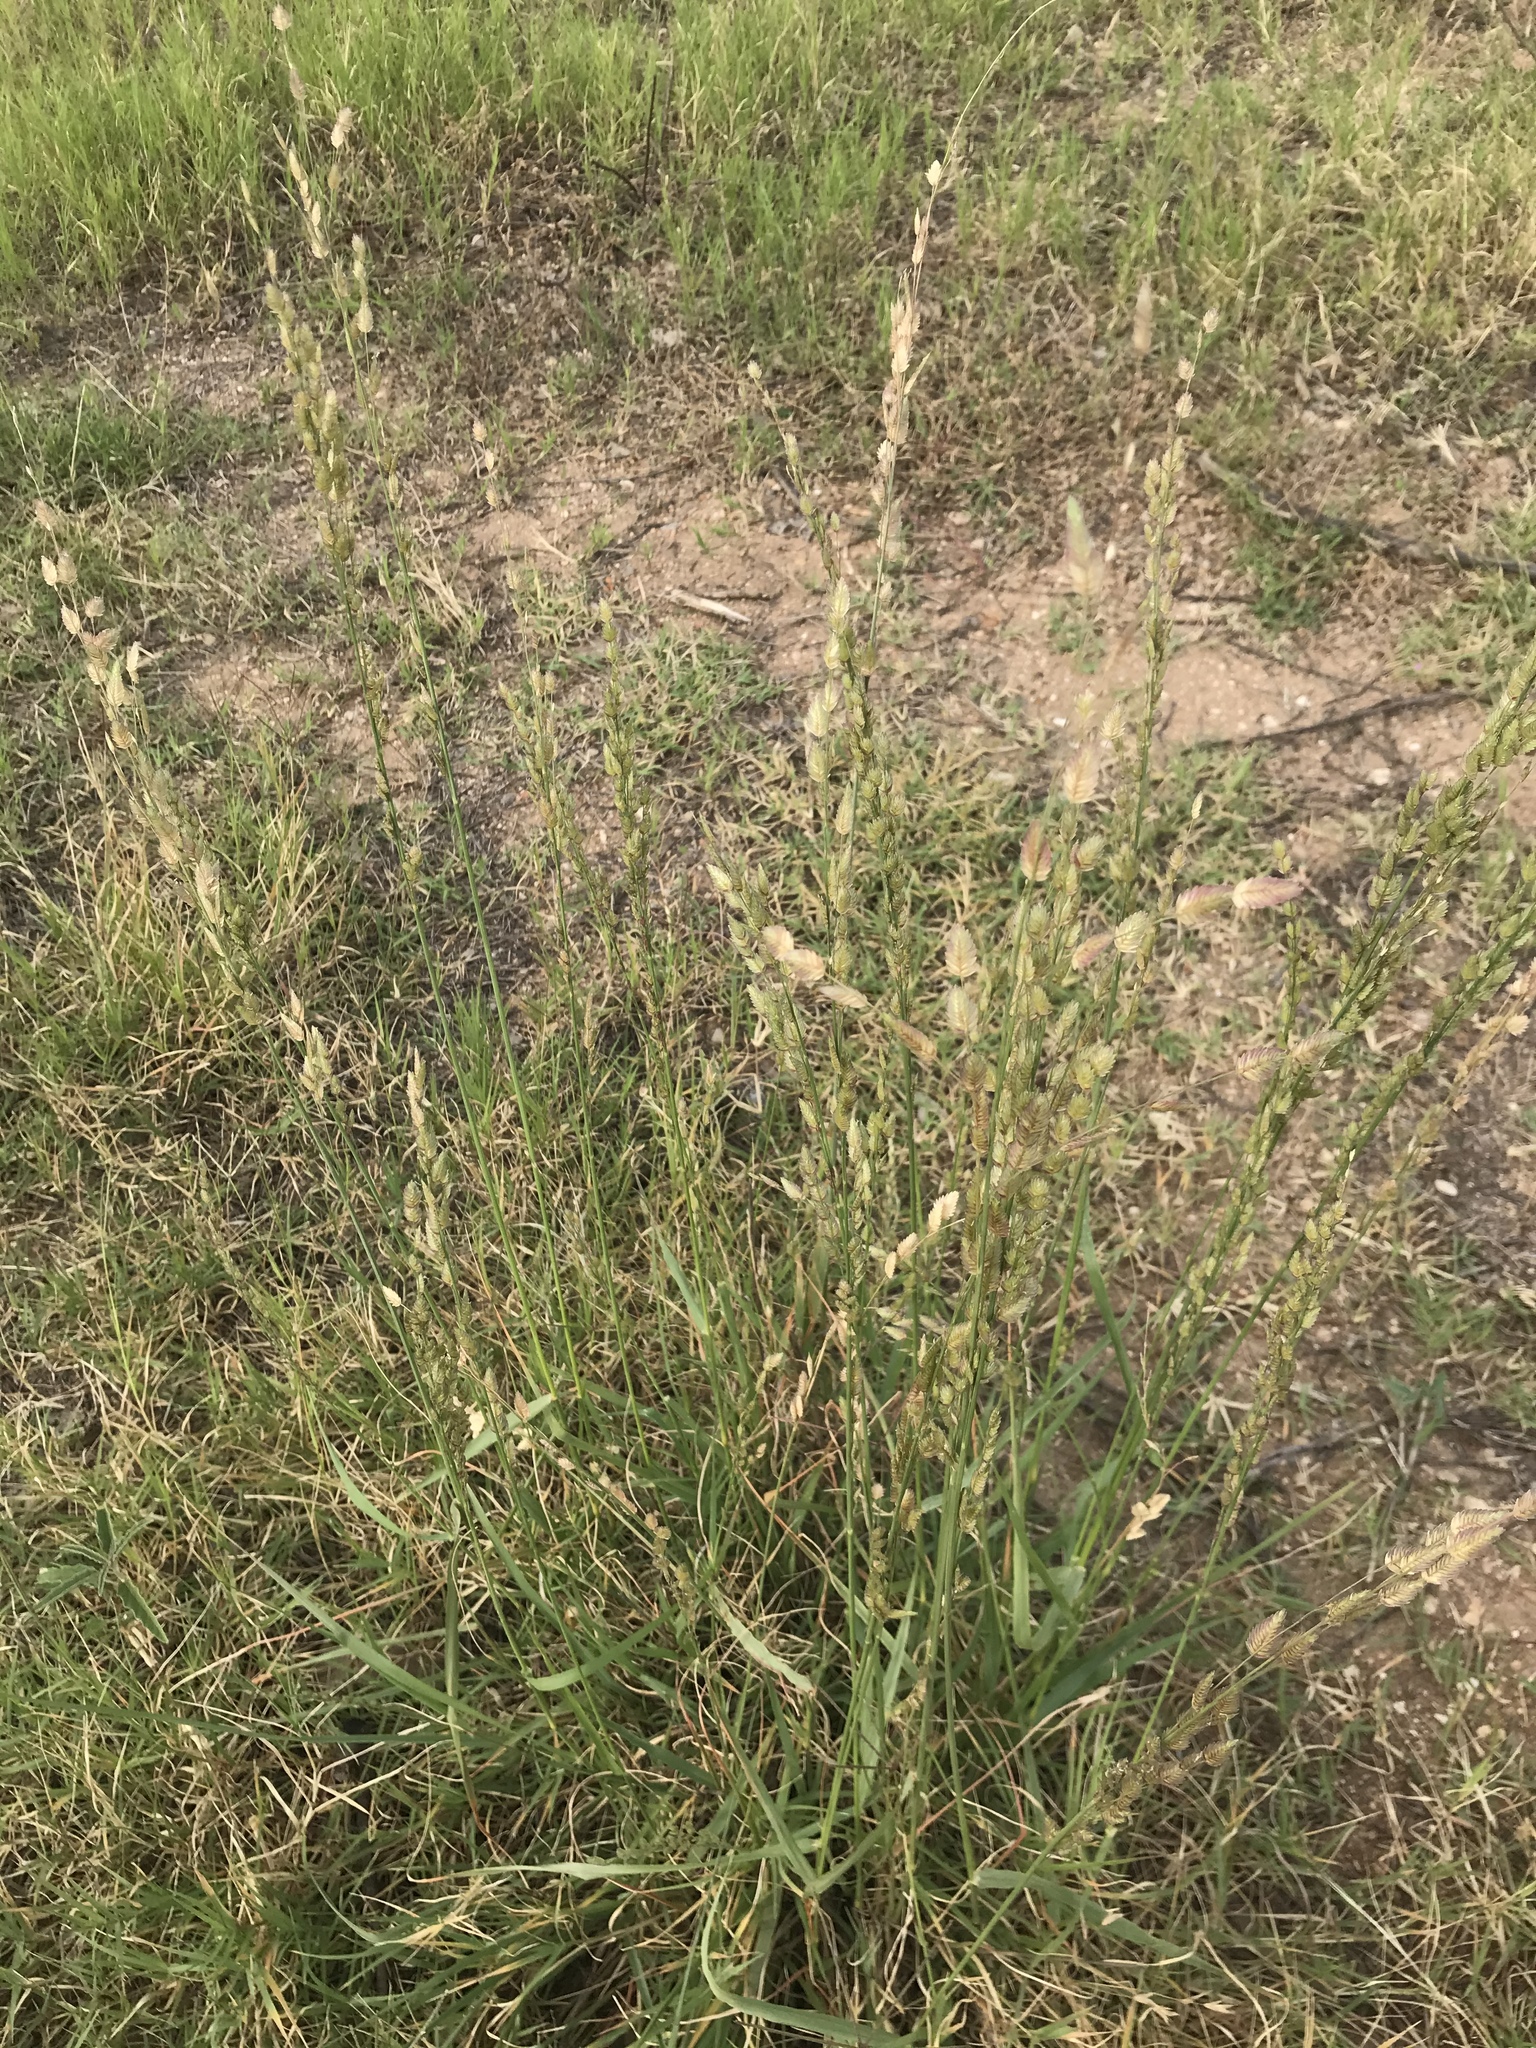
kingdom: Plantae
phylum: Tracheophyta
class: Liliopsida
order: Poales
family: Poaceae
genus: Eragrostis
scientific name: Eragrostis superba
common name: Wilman lovegrass
